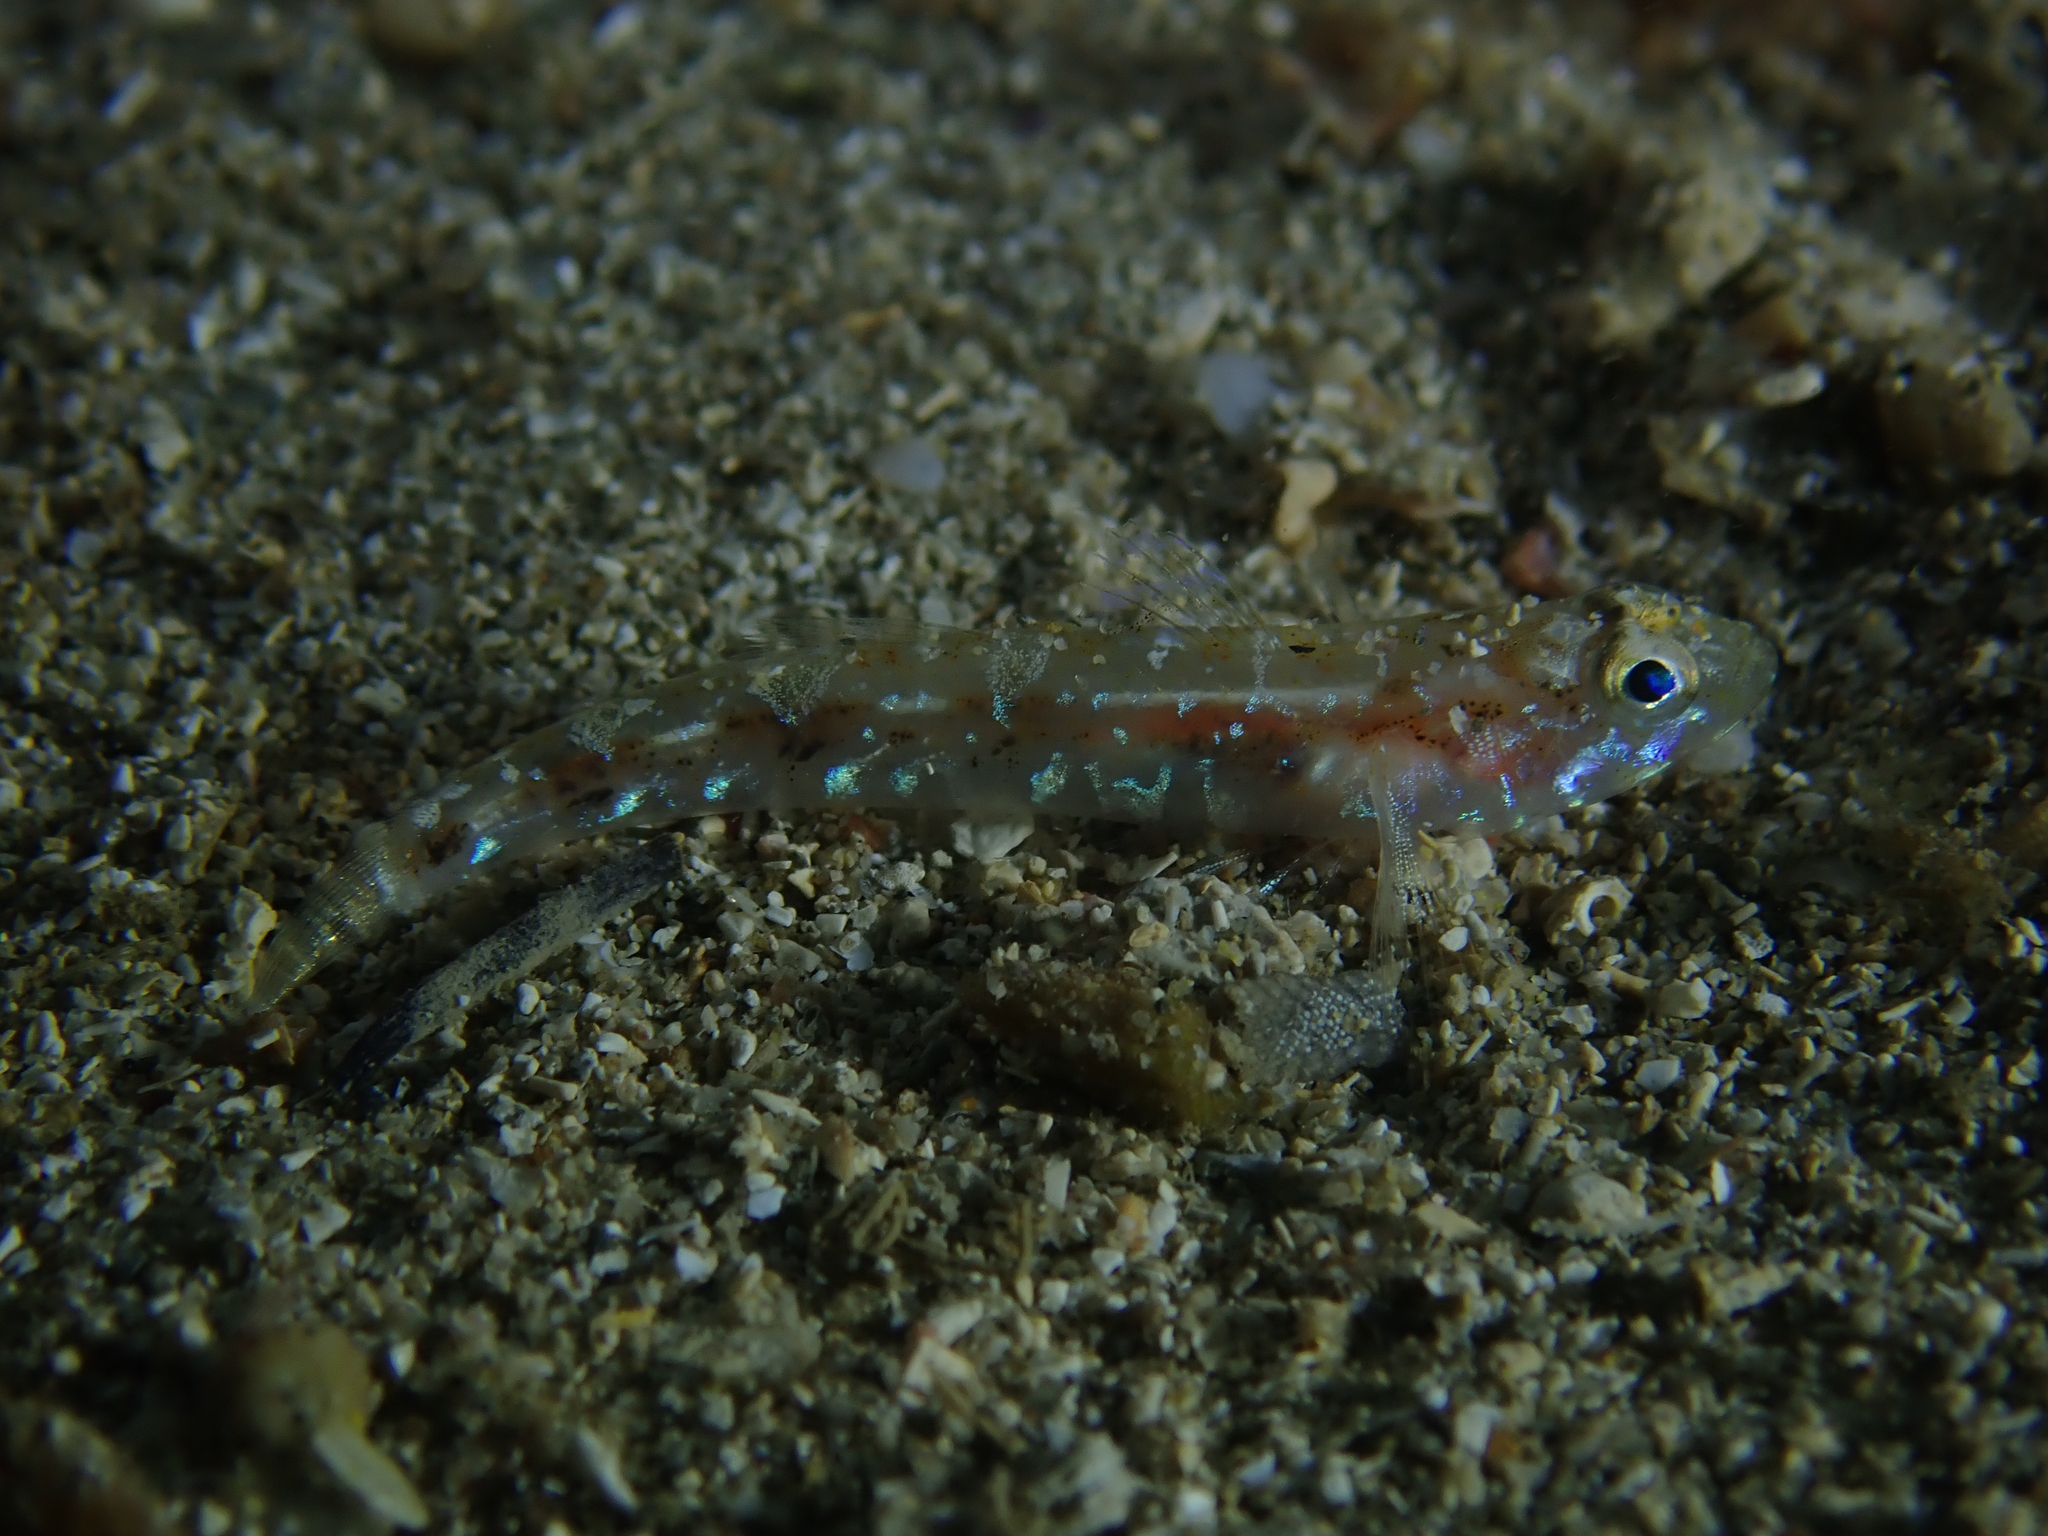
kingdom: Animalia
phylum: Chordata
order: Perciformes
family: Gobiidae
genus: Pomatoschistus
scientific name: Pomatoschistus pictus
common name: Painted goby
